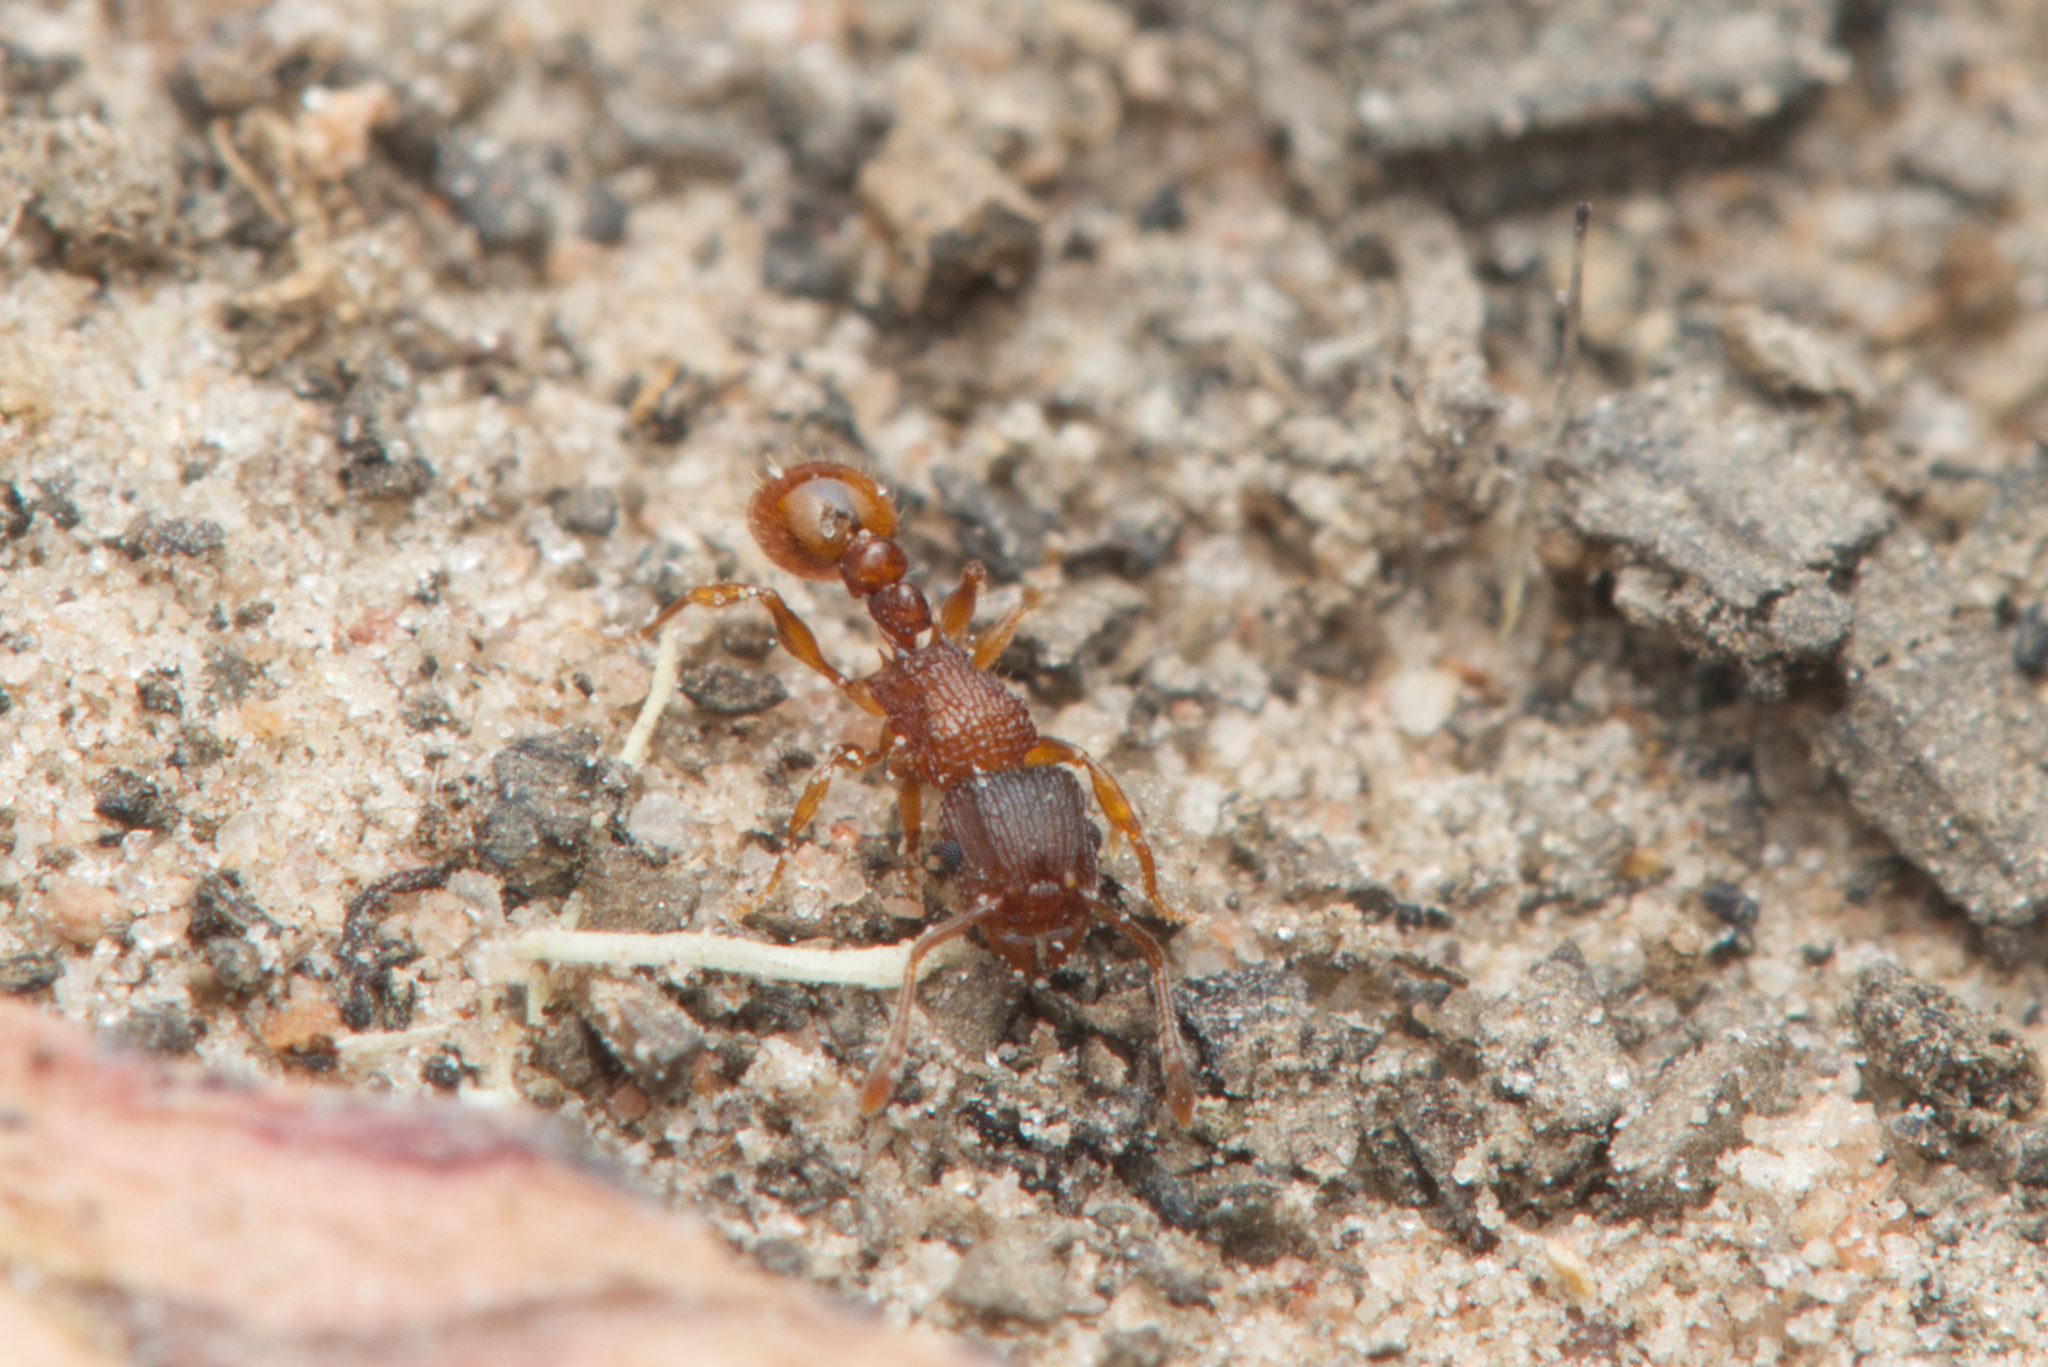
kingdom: Animalia
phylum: Arthropoda
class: Insecta
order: Hymenoptera
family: Formicidae
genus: Tetramorium
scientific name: Tetramorium fuscipes
